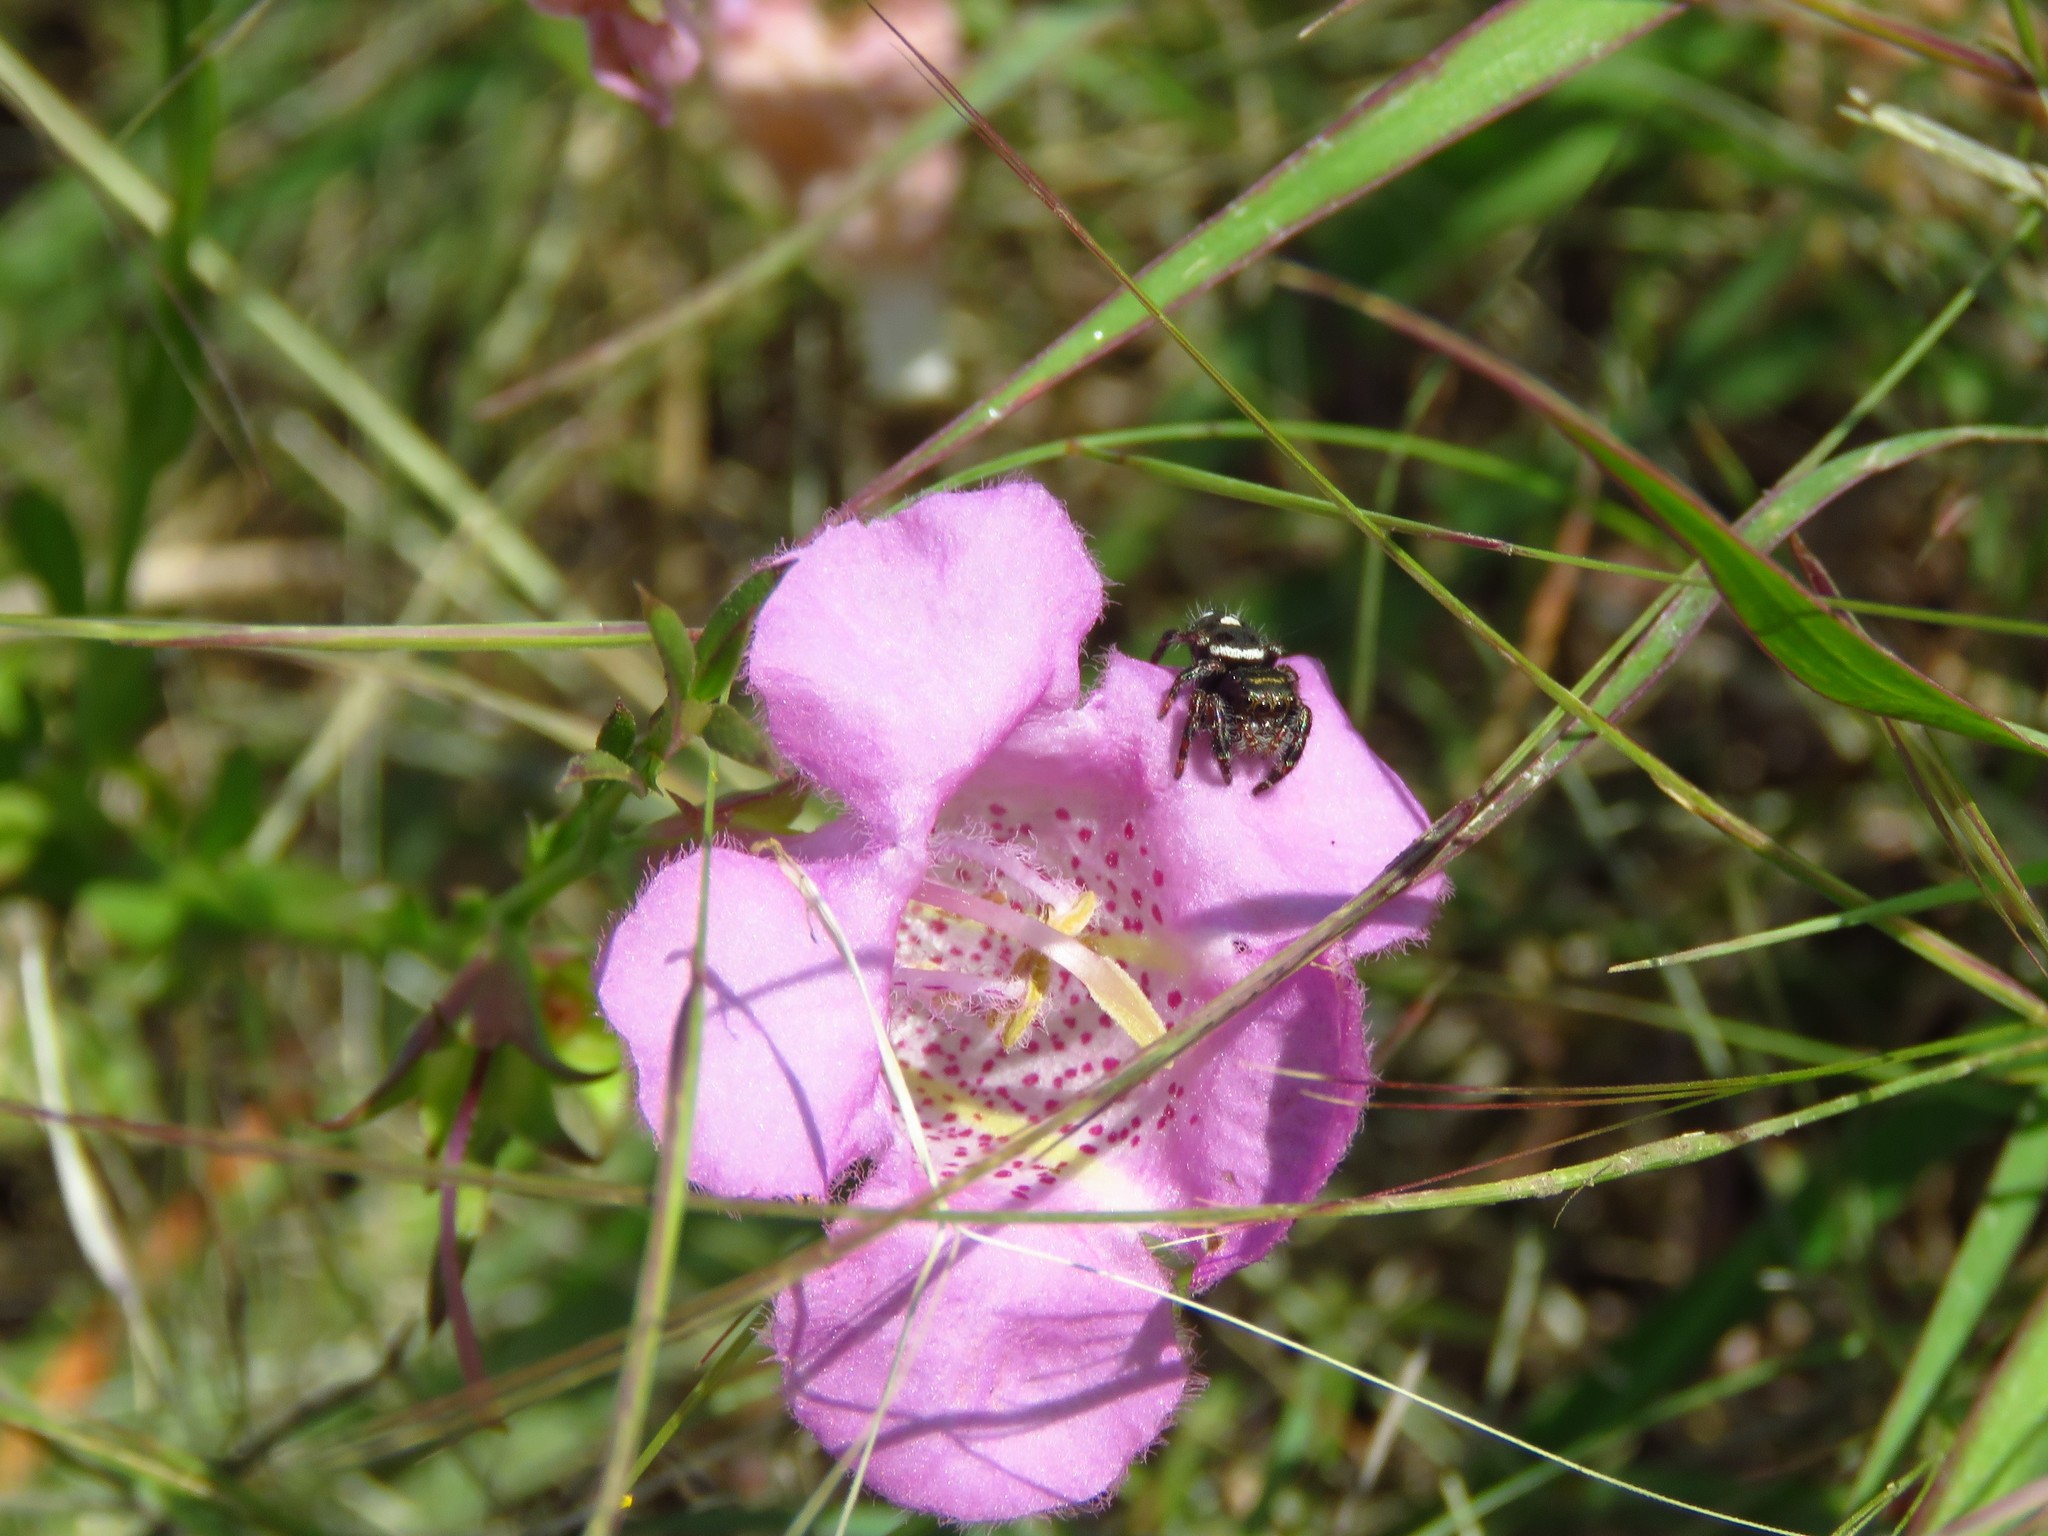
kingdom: Plantae
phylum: Tracheophyta
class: Magnoliopsida
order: Lamiales
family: Orobanchaceae
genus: Agalinis
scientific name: Agalinis heterophylla
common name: Prairie agalinis
